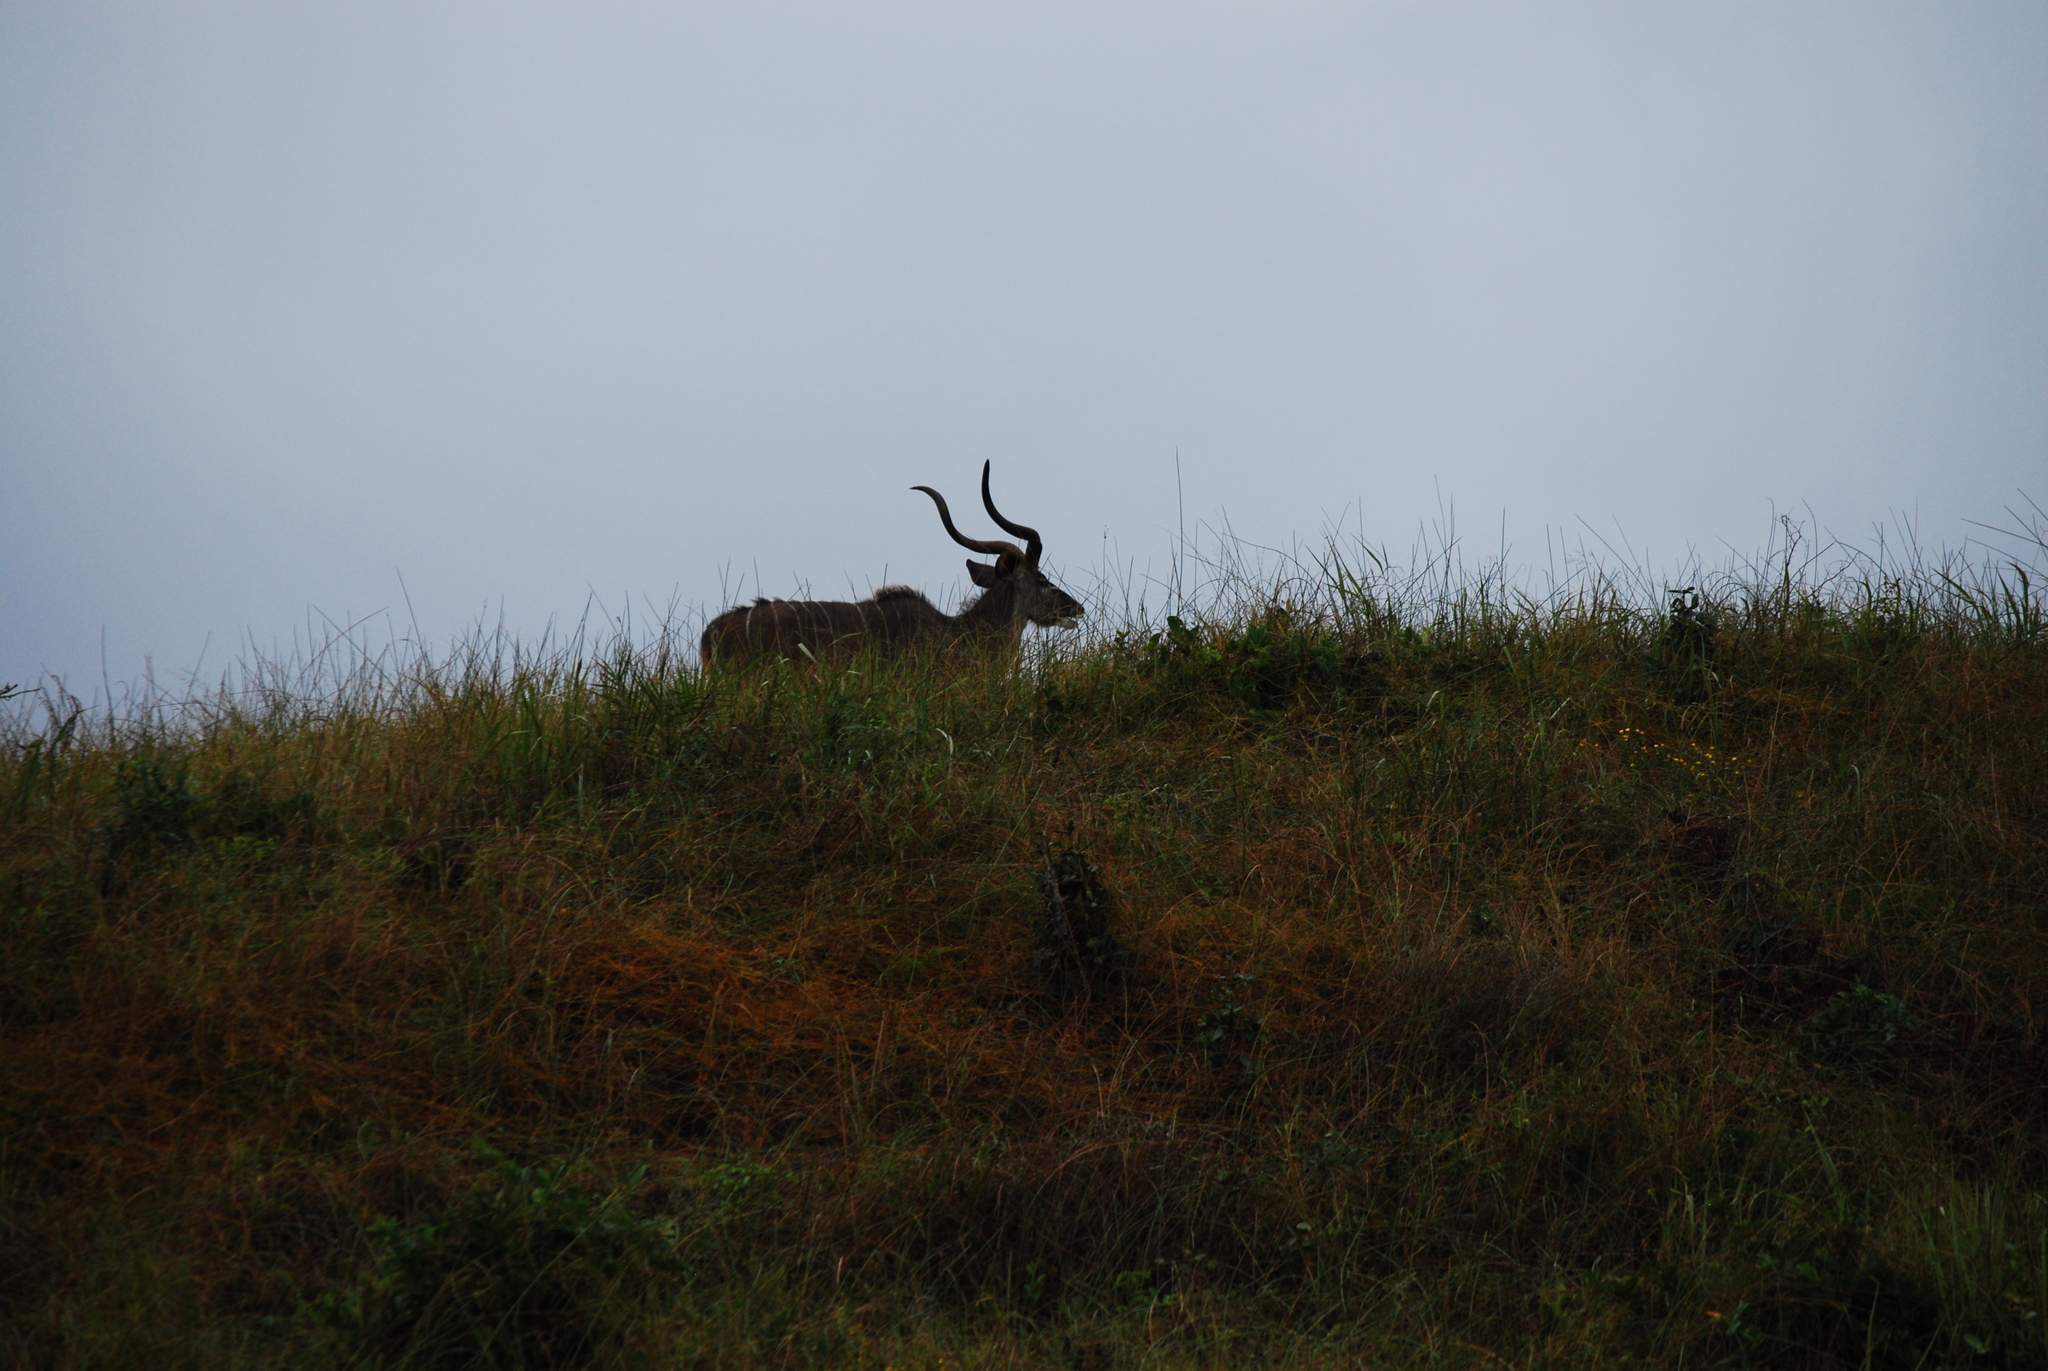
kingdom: Animalia
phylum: Chordata
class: Mammalia
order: Artiodactyla
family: Bovidae
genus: Tragelaphus
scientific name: Tragelaphus strepsiceros
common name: Greater kudu
